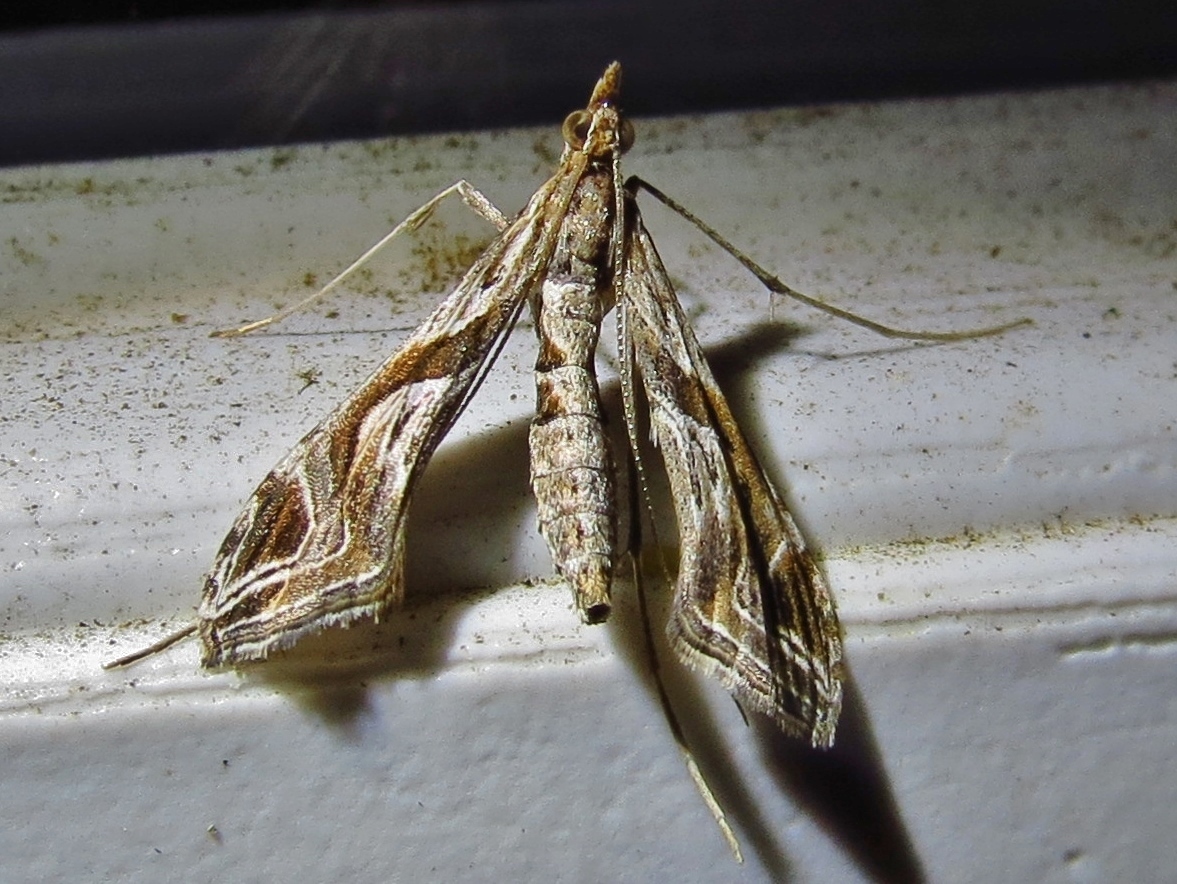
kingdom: Animalia
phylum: Arthropoda
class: Insecta
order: Lepidoptera
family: Crambidae
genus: Lineodes
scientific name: Lineodes integra
